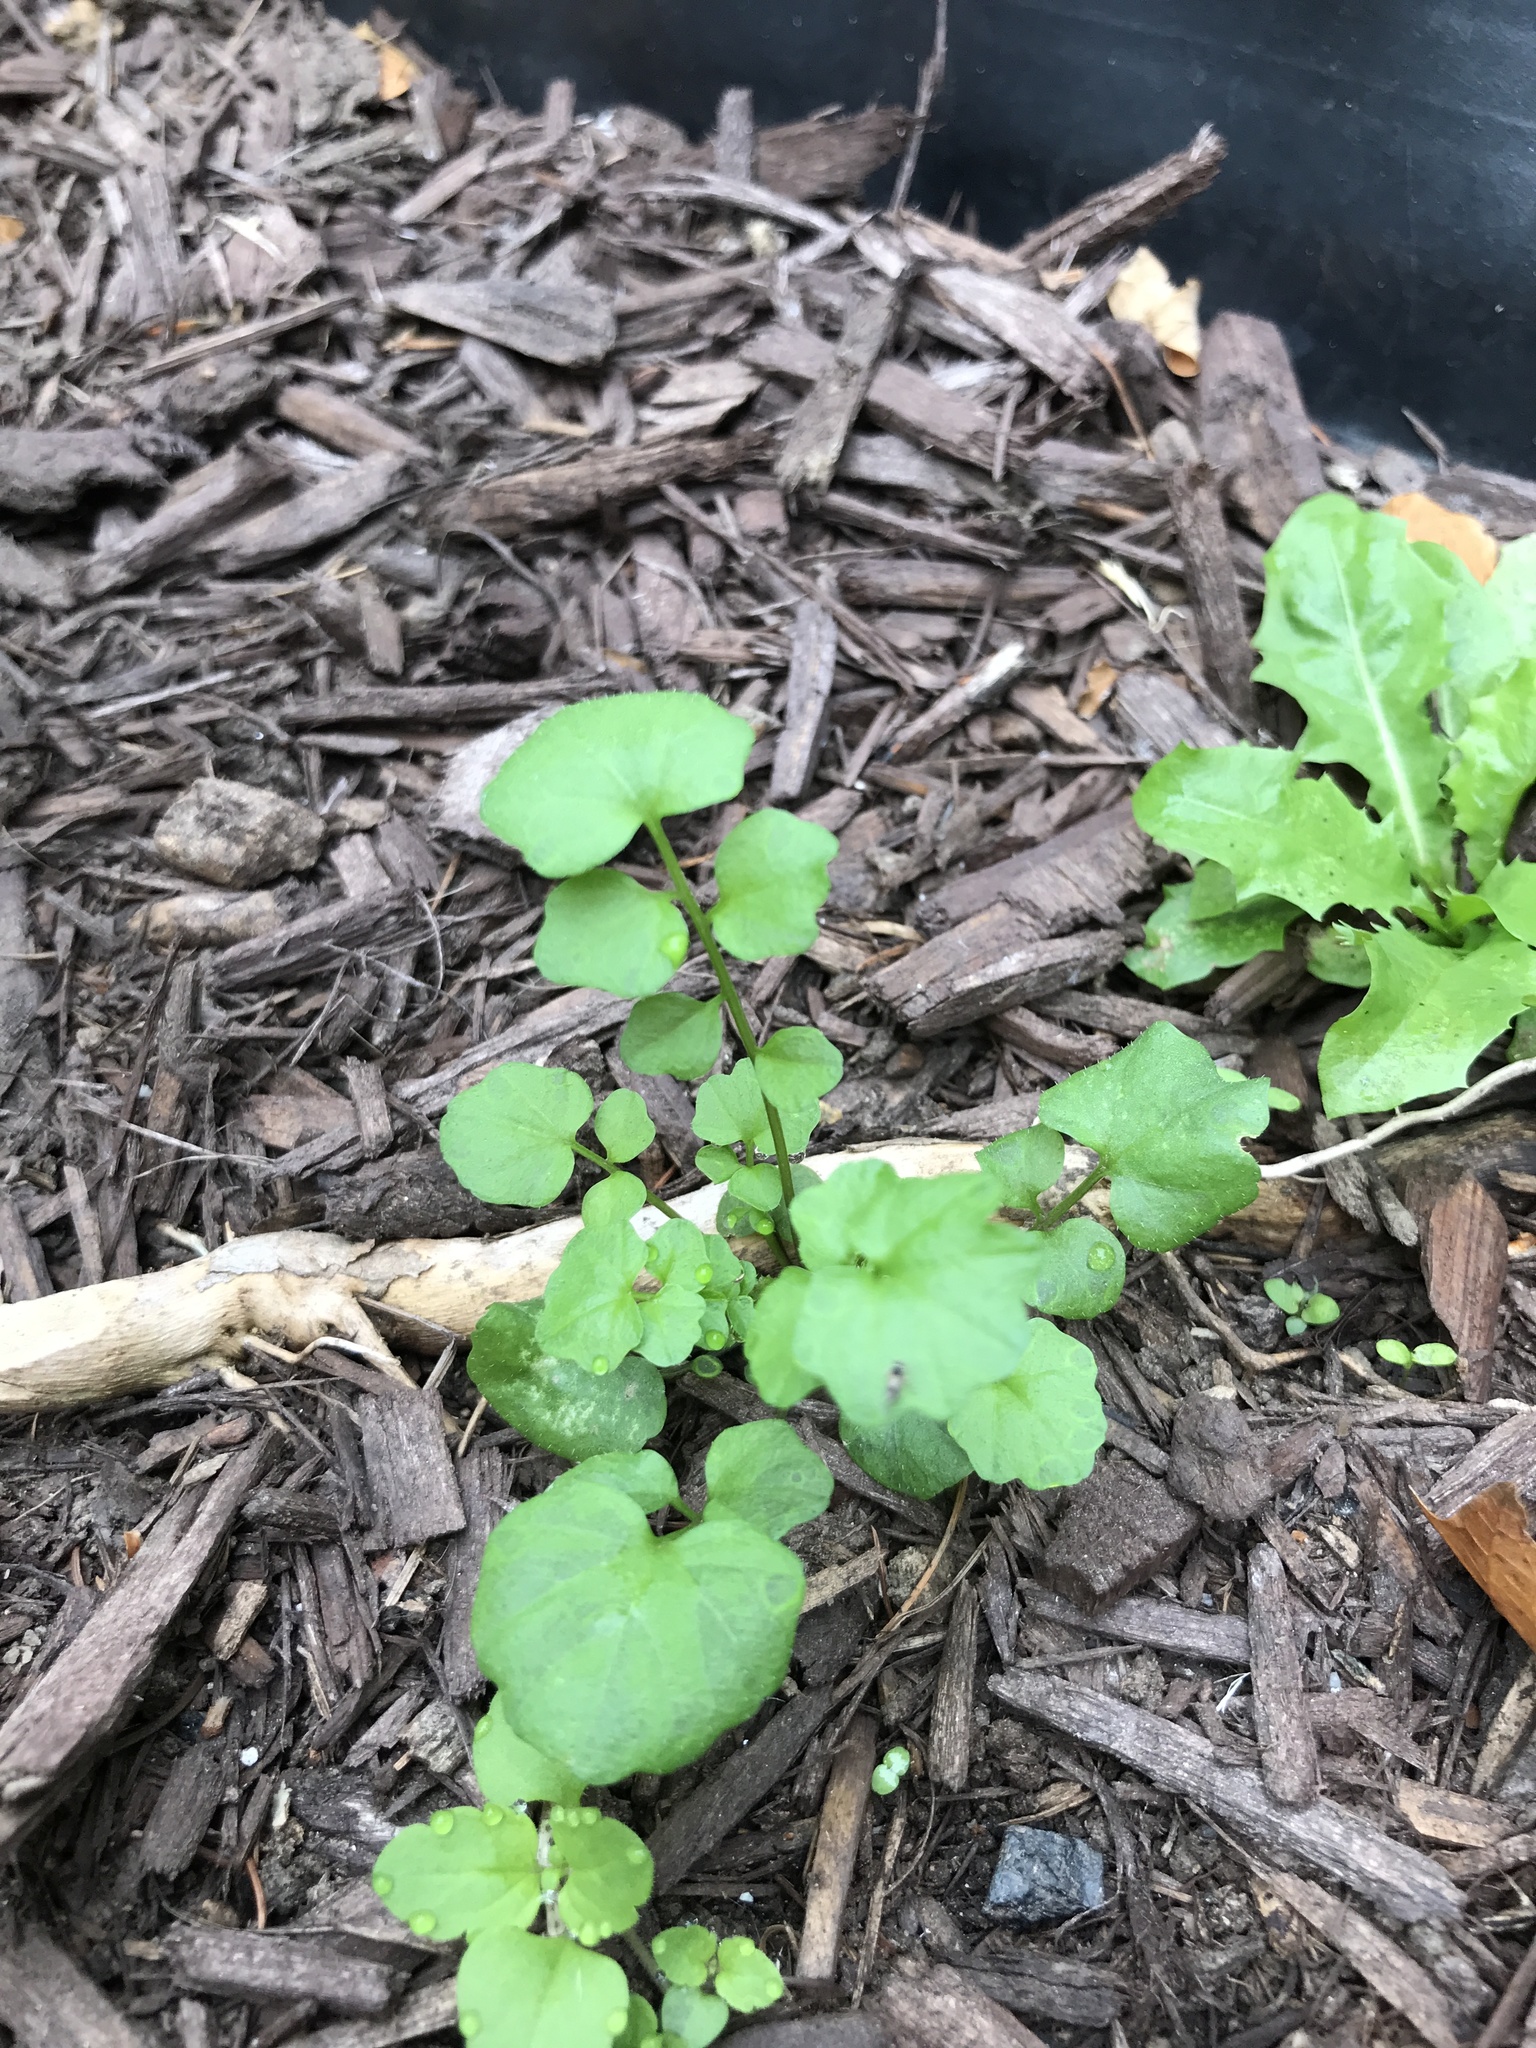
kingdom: Plantae
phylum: Tracheophyta
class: Magnoliopsida
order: Brassicales
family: Brassicaceae
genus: Cardamine
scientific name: Cardamine hirsuta
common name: Hairy bittercress
